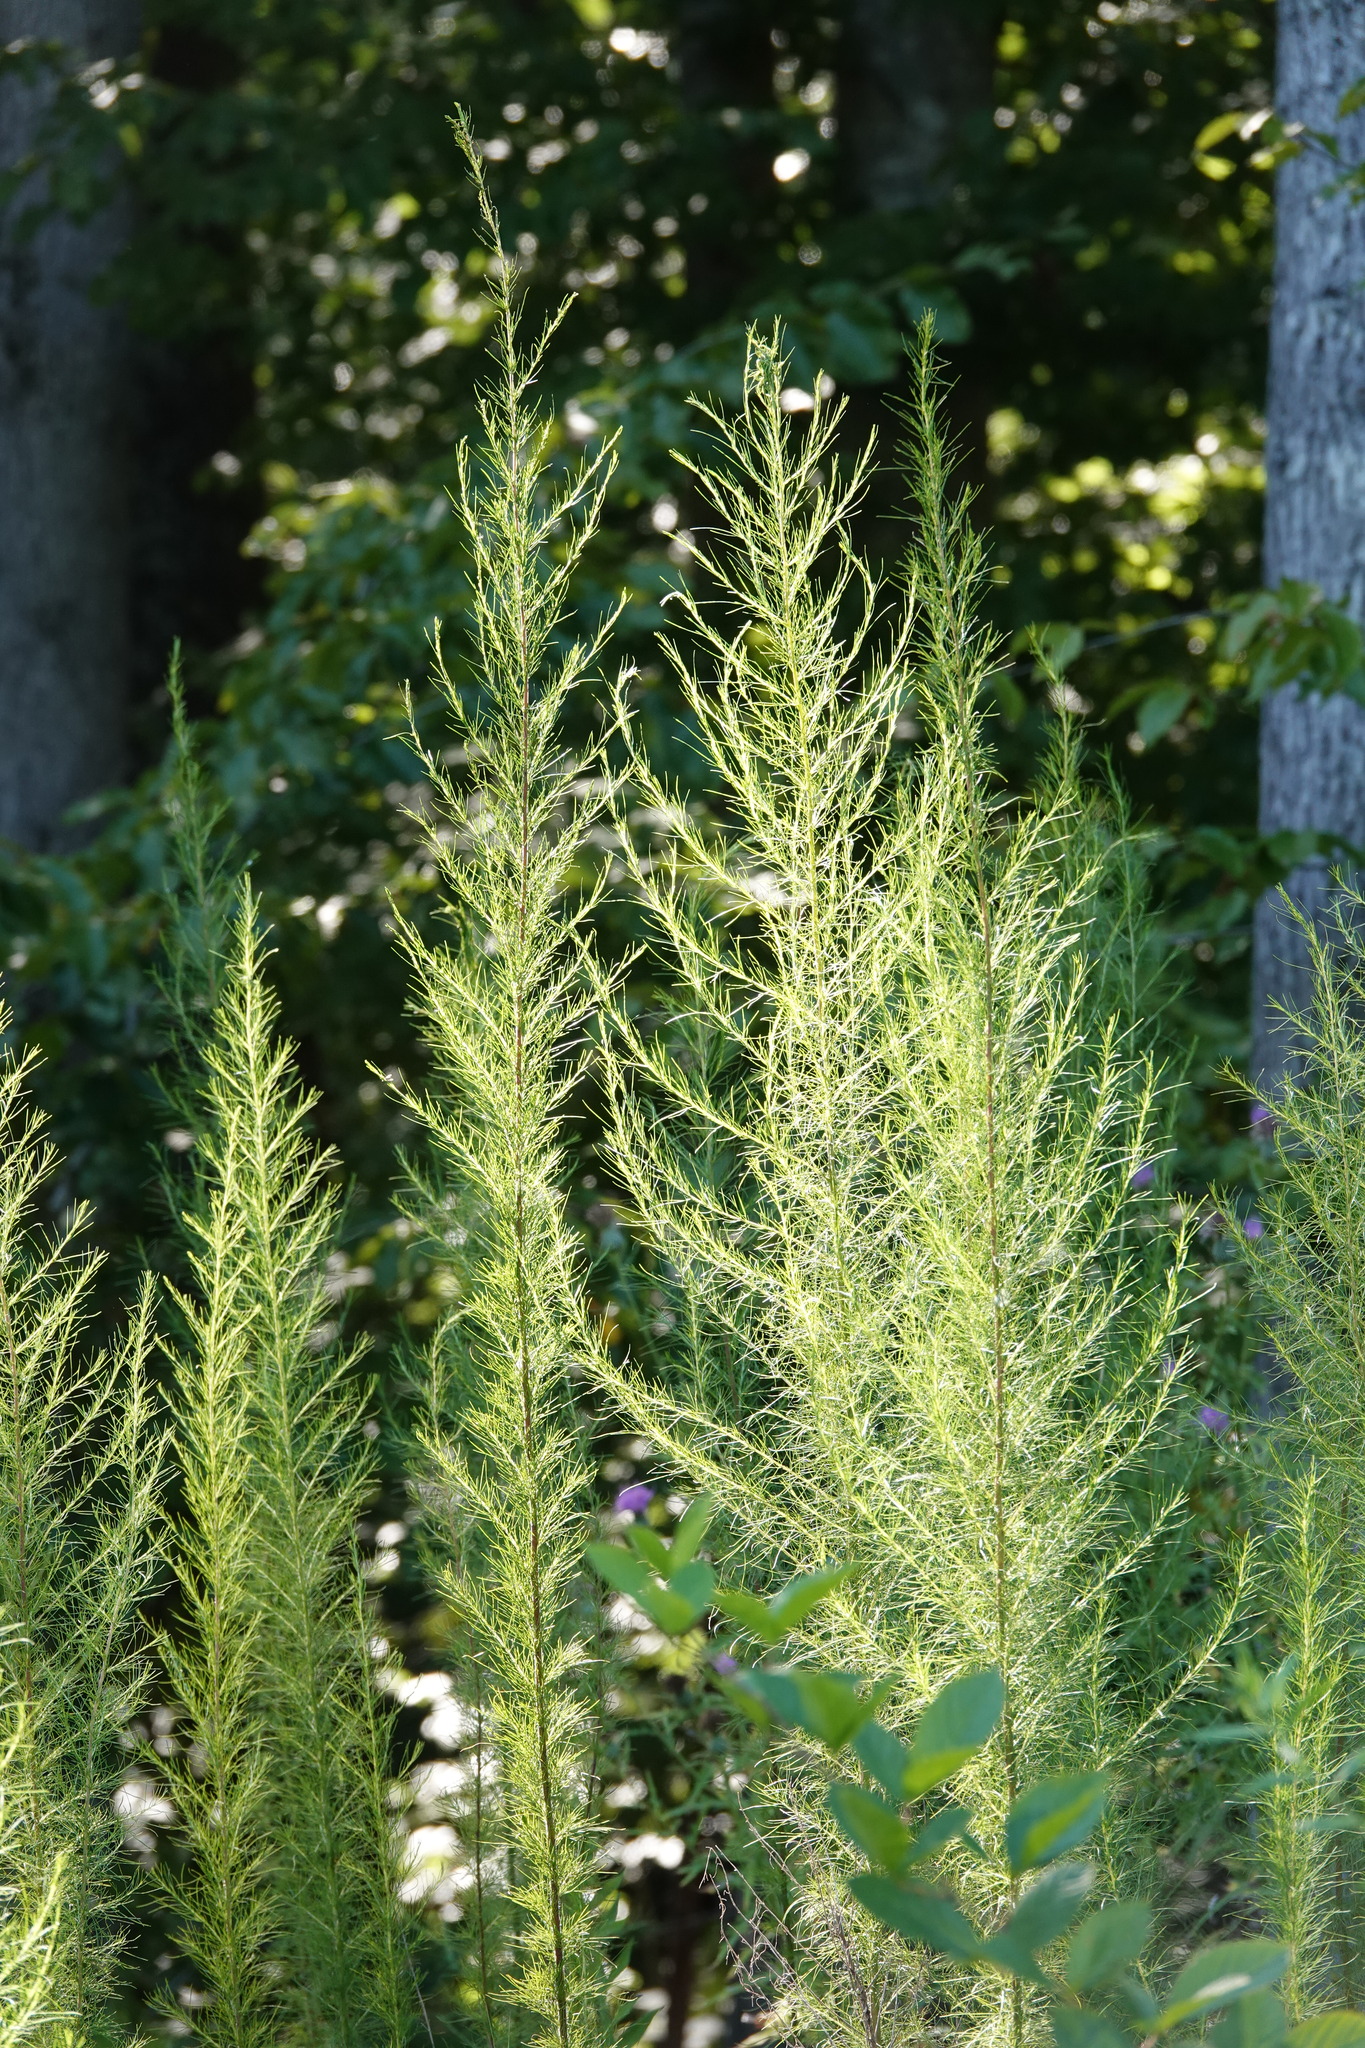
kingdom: Plantae
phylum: Tracheophyta
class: Magnoliopsida
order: Asterales
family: Asteraceae
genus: Eupatorium
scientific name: Eupatorium capillifolium
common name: Dog-fennel
